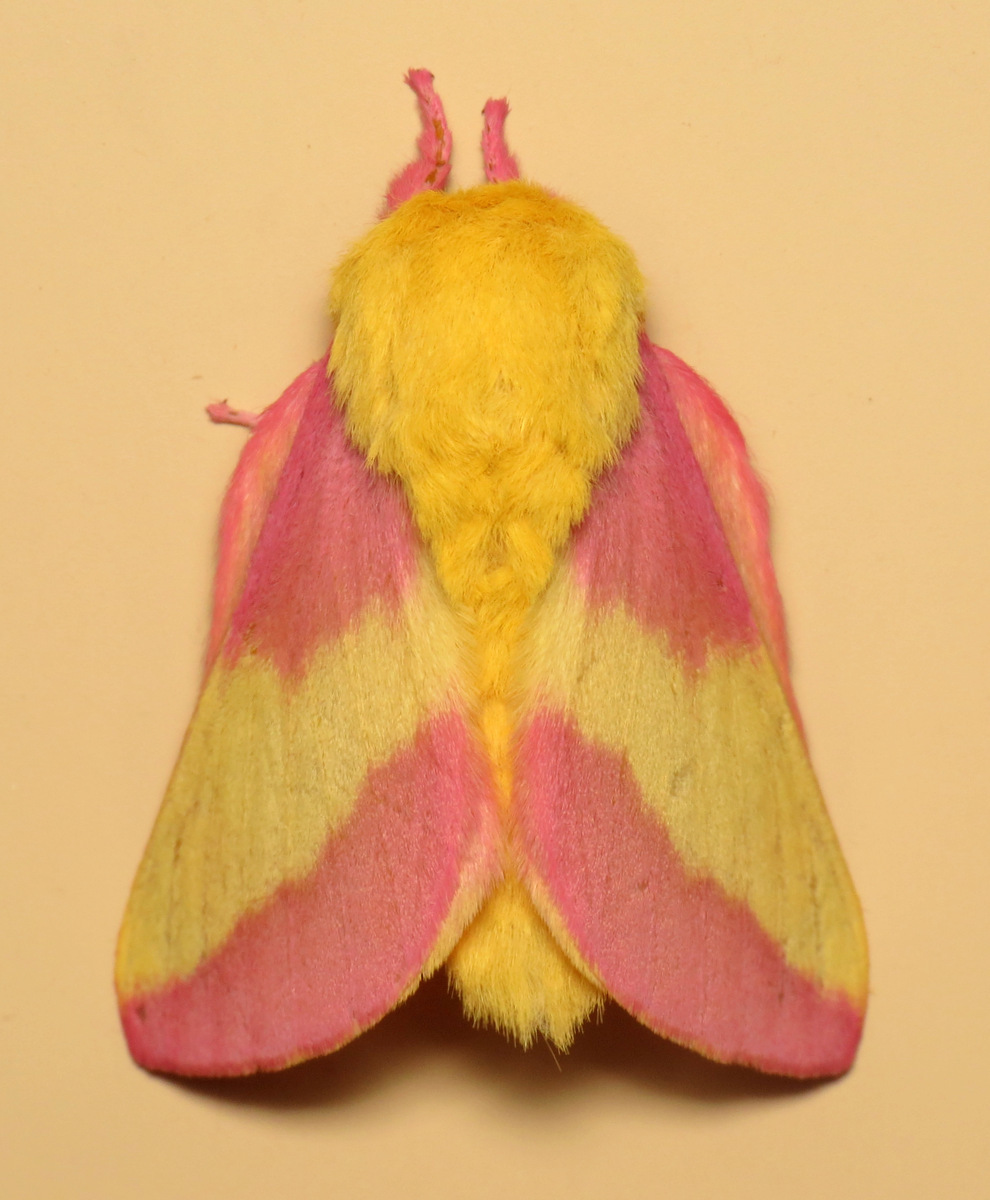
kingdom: Animalia
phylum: Arthropoda
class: Insecta
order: Lepidoptera
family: Saturniidae
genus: Dryocampa
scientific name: Dryocampa rubicunda
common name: Rosy maple moth
